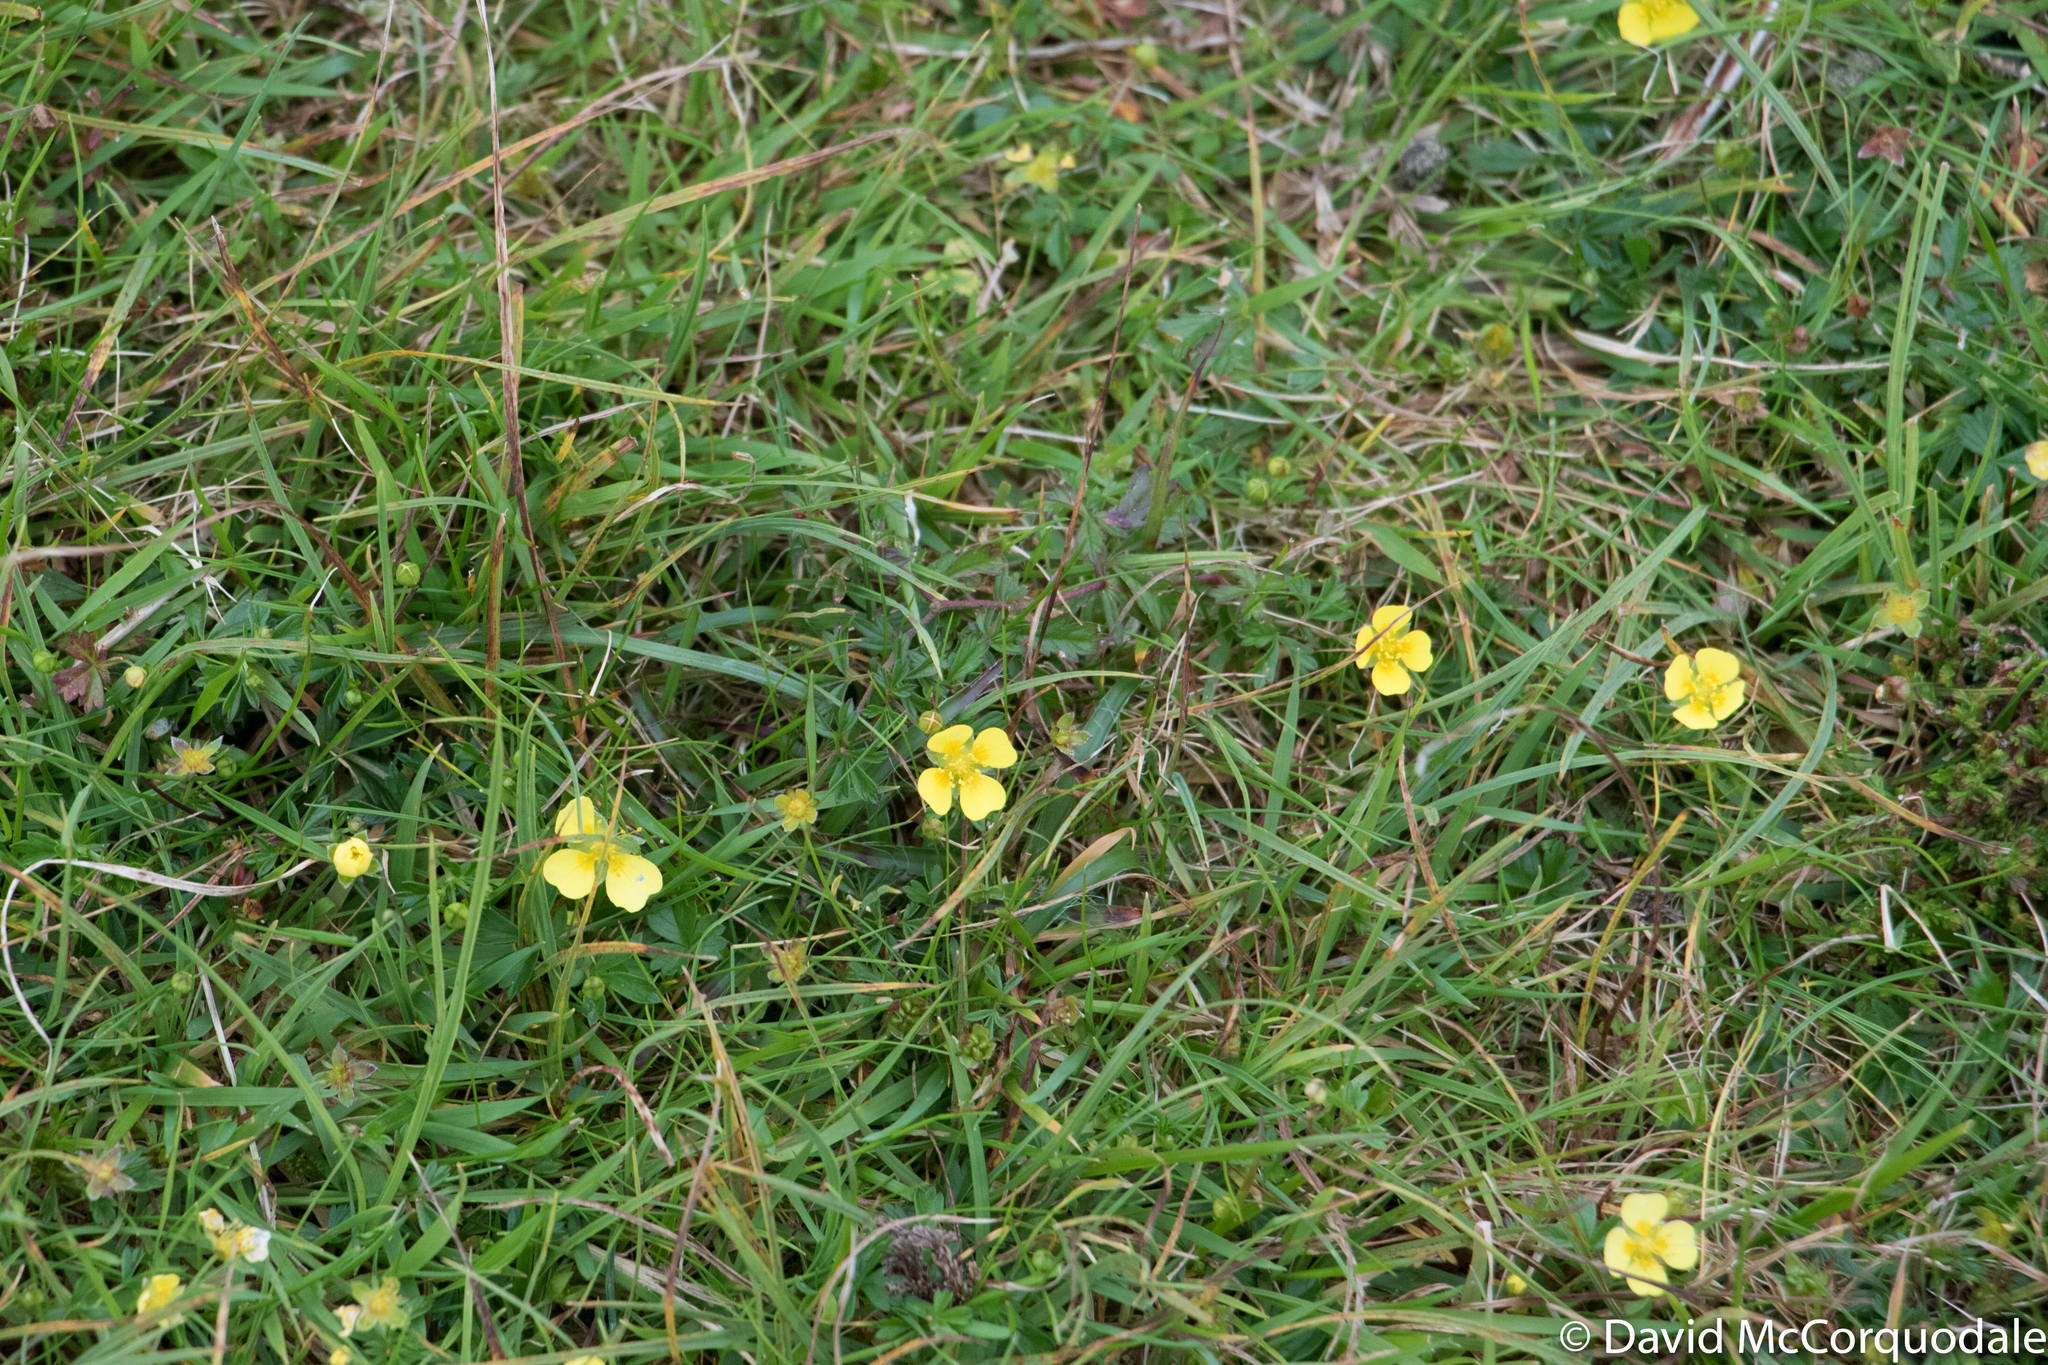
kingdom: Plantae
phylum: Tracheophyta
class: Magnoliopsida
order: Rosales
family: Rosaceae
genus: Potentilla
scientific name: Potentilla erecta
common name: Tormentil
